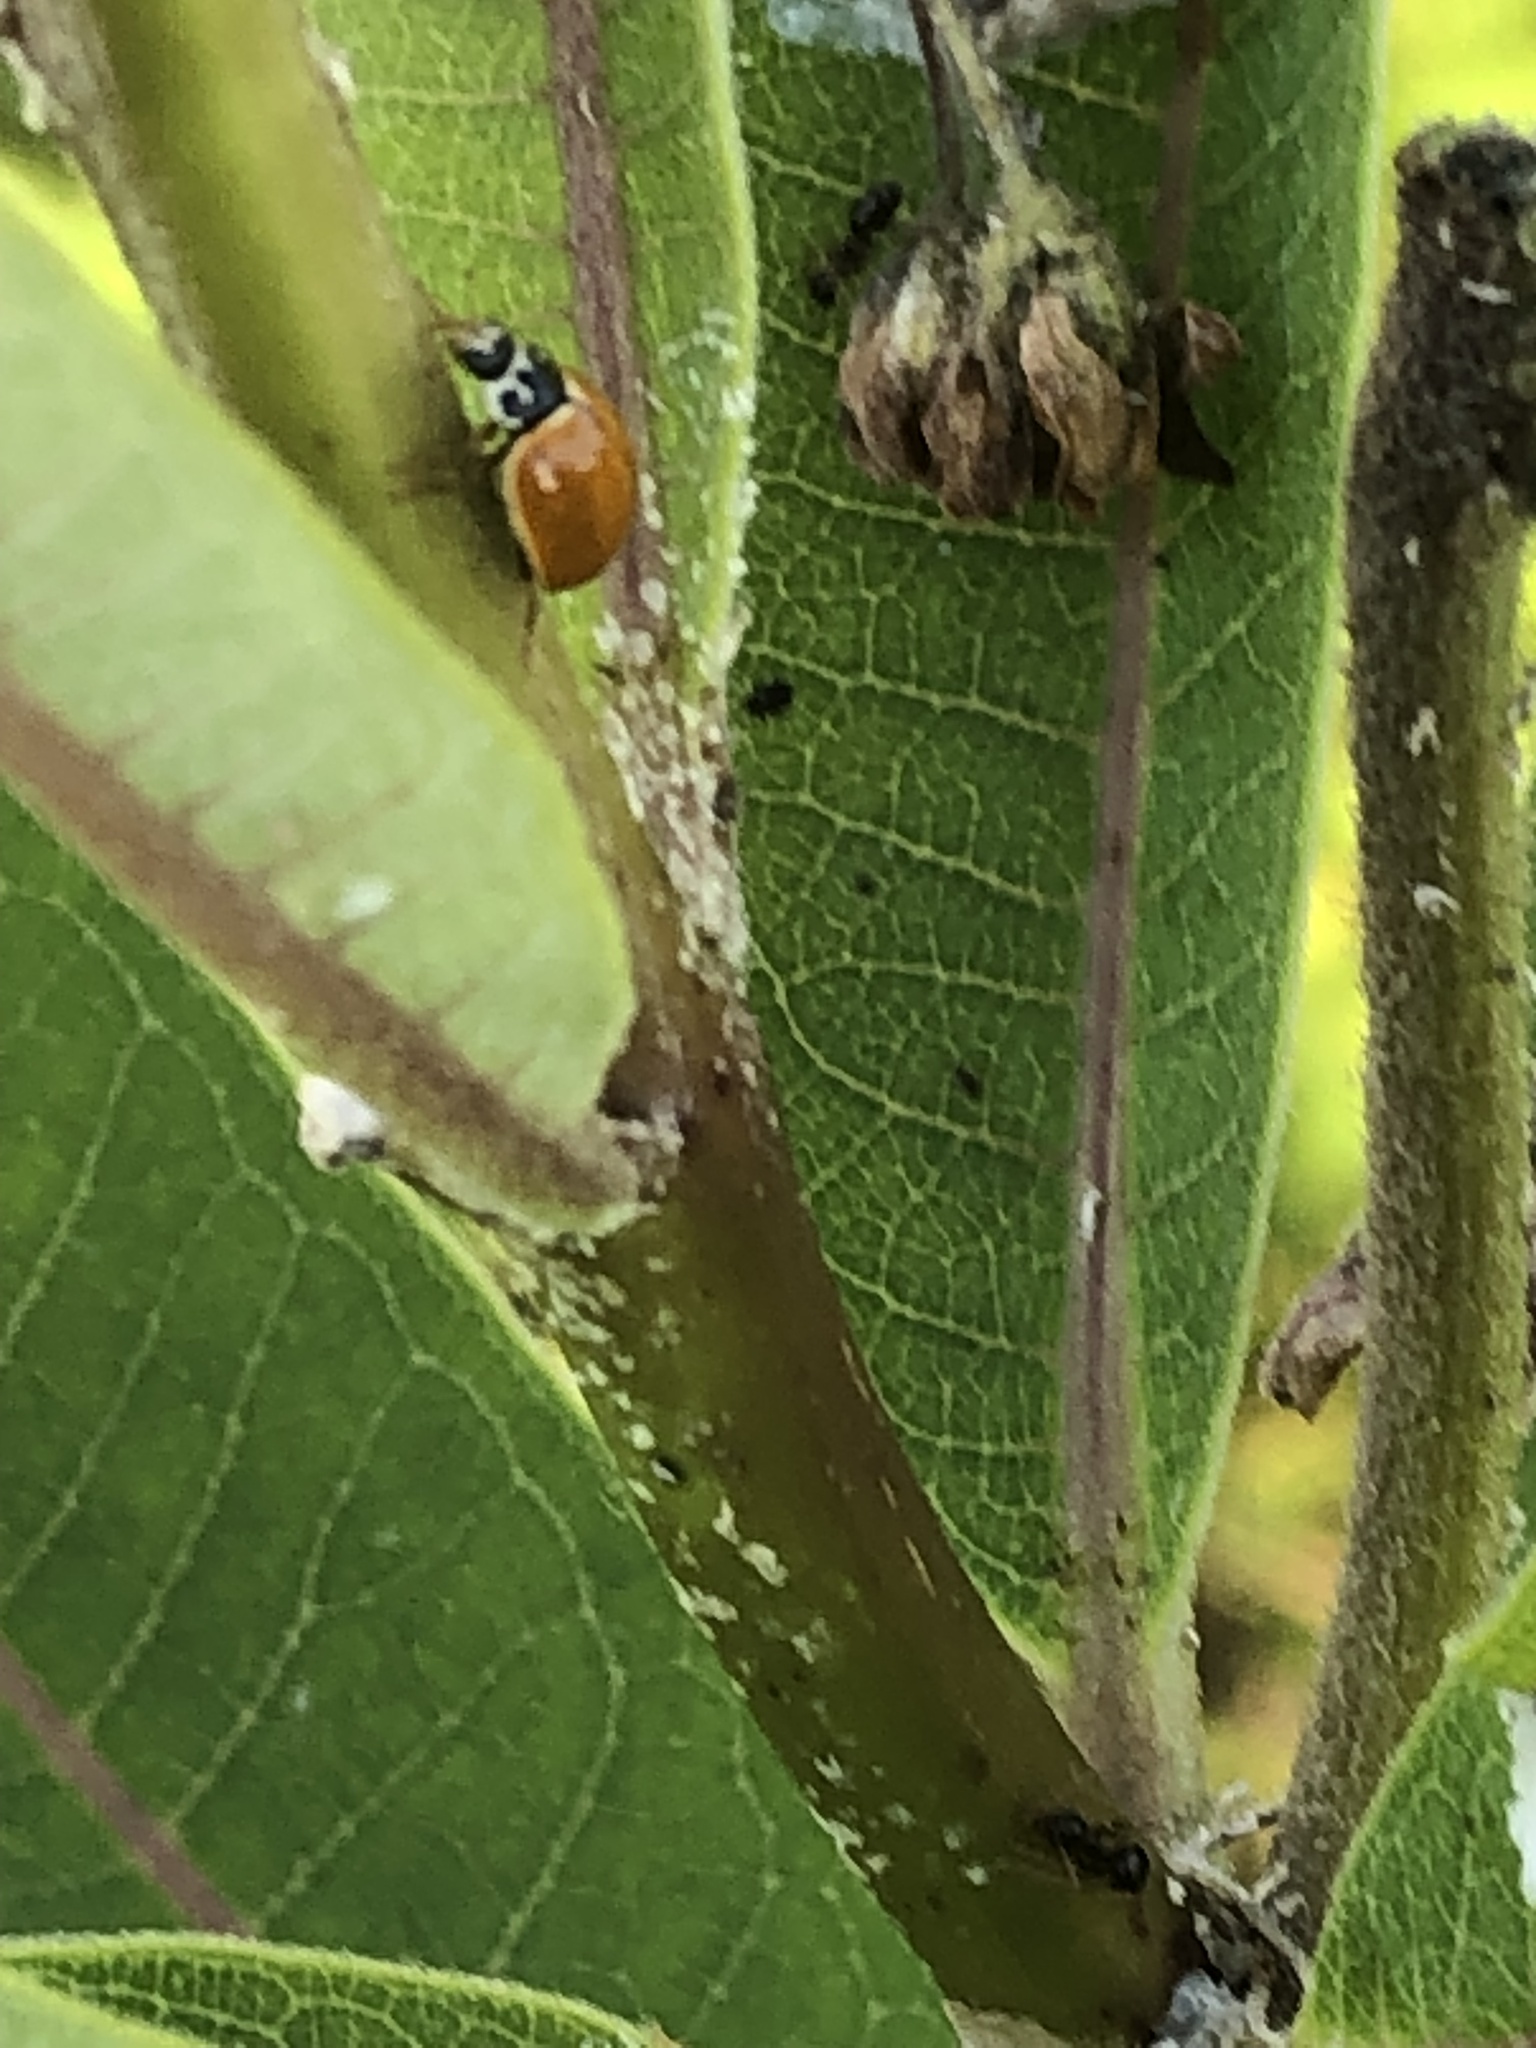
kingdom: Animalia
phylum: Arthropoda
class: Insecta
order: Coleoptera
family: Coccinellidae
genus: Cycloneda
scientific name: Cycloneda munda
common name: Polished lady beetle
